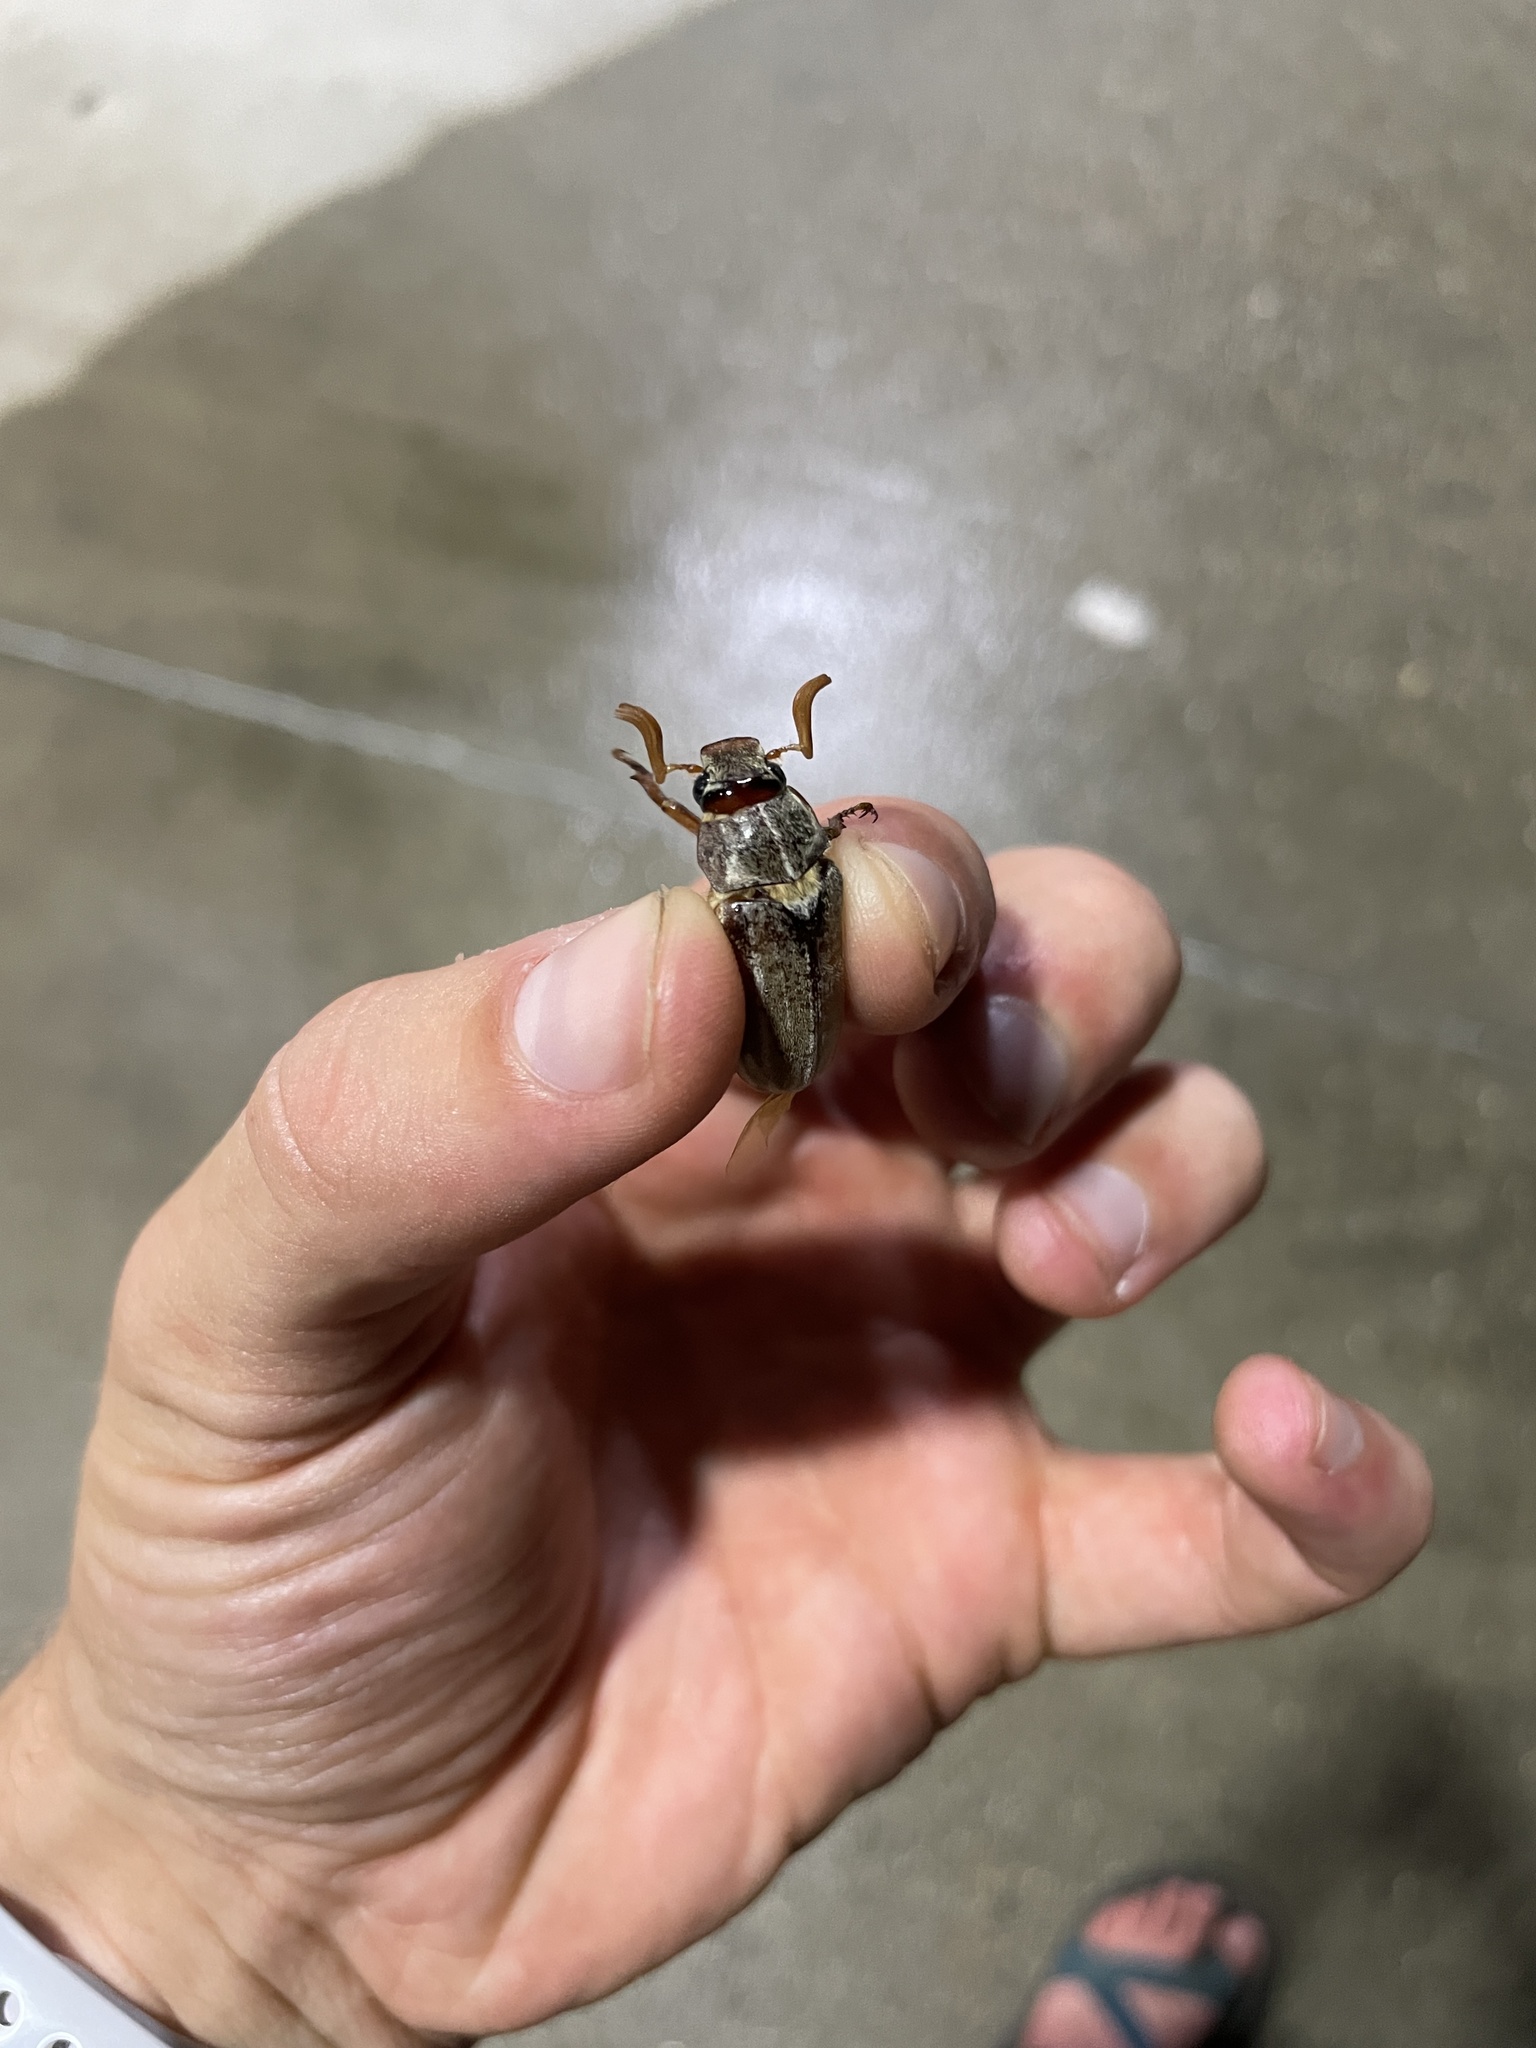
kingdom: Animalia
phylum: Arthropoda
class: Insecta
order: Coleoptera
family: Scarabaeidae
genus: Polyphylla
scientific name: Polyphylla occidentalis
